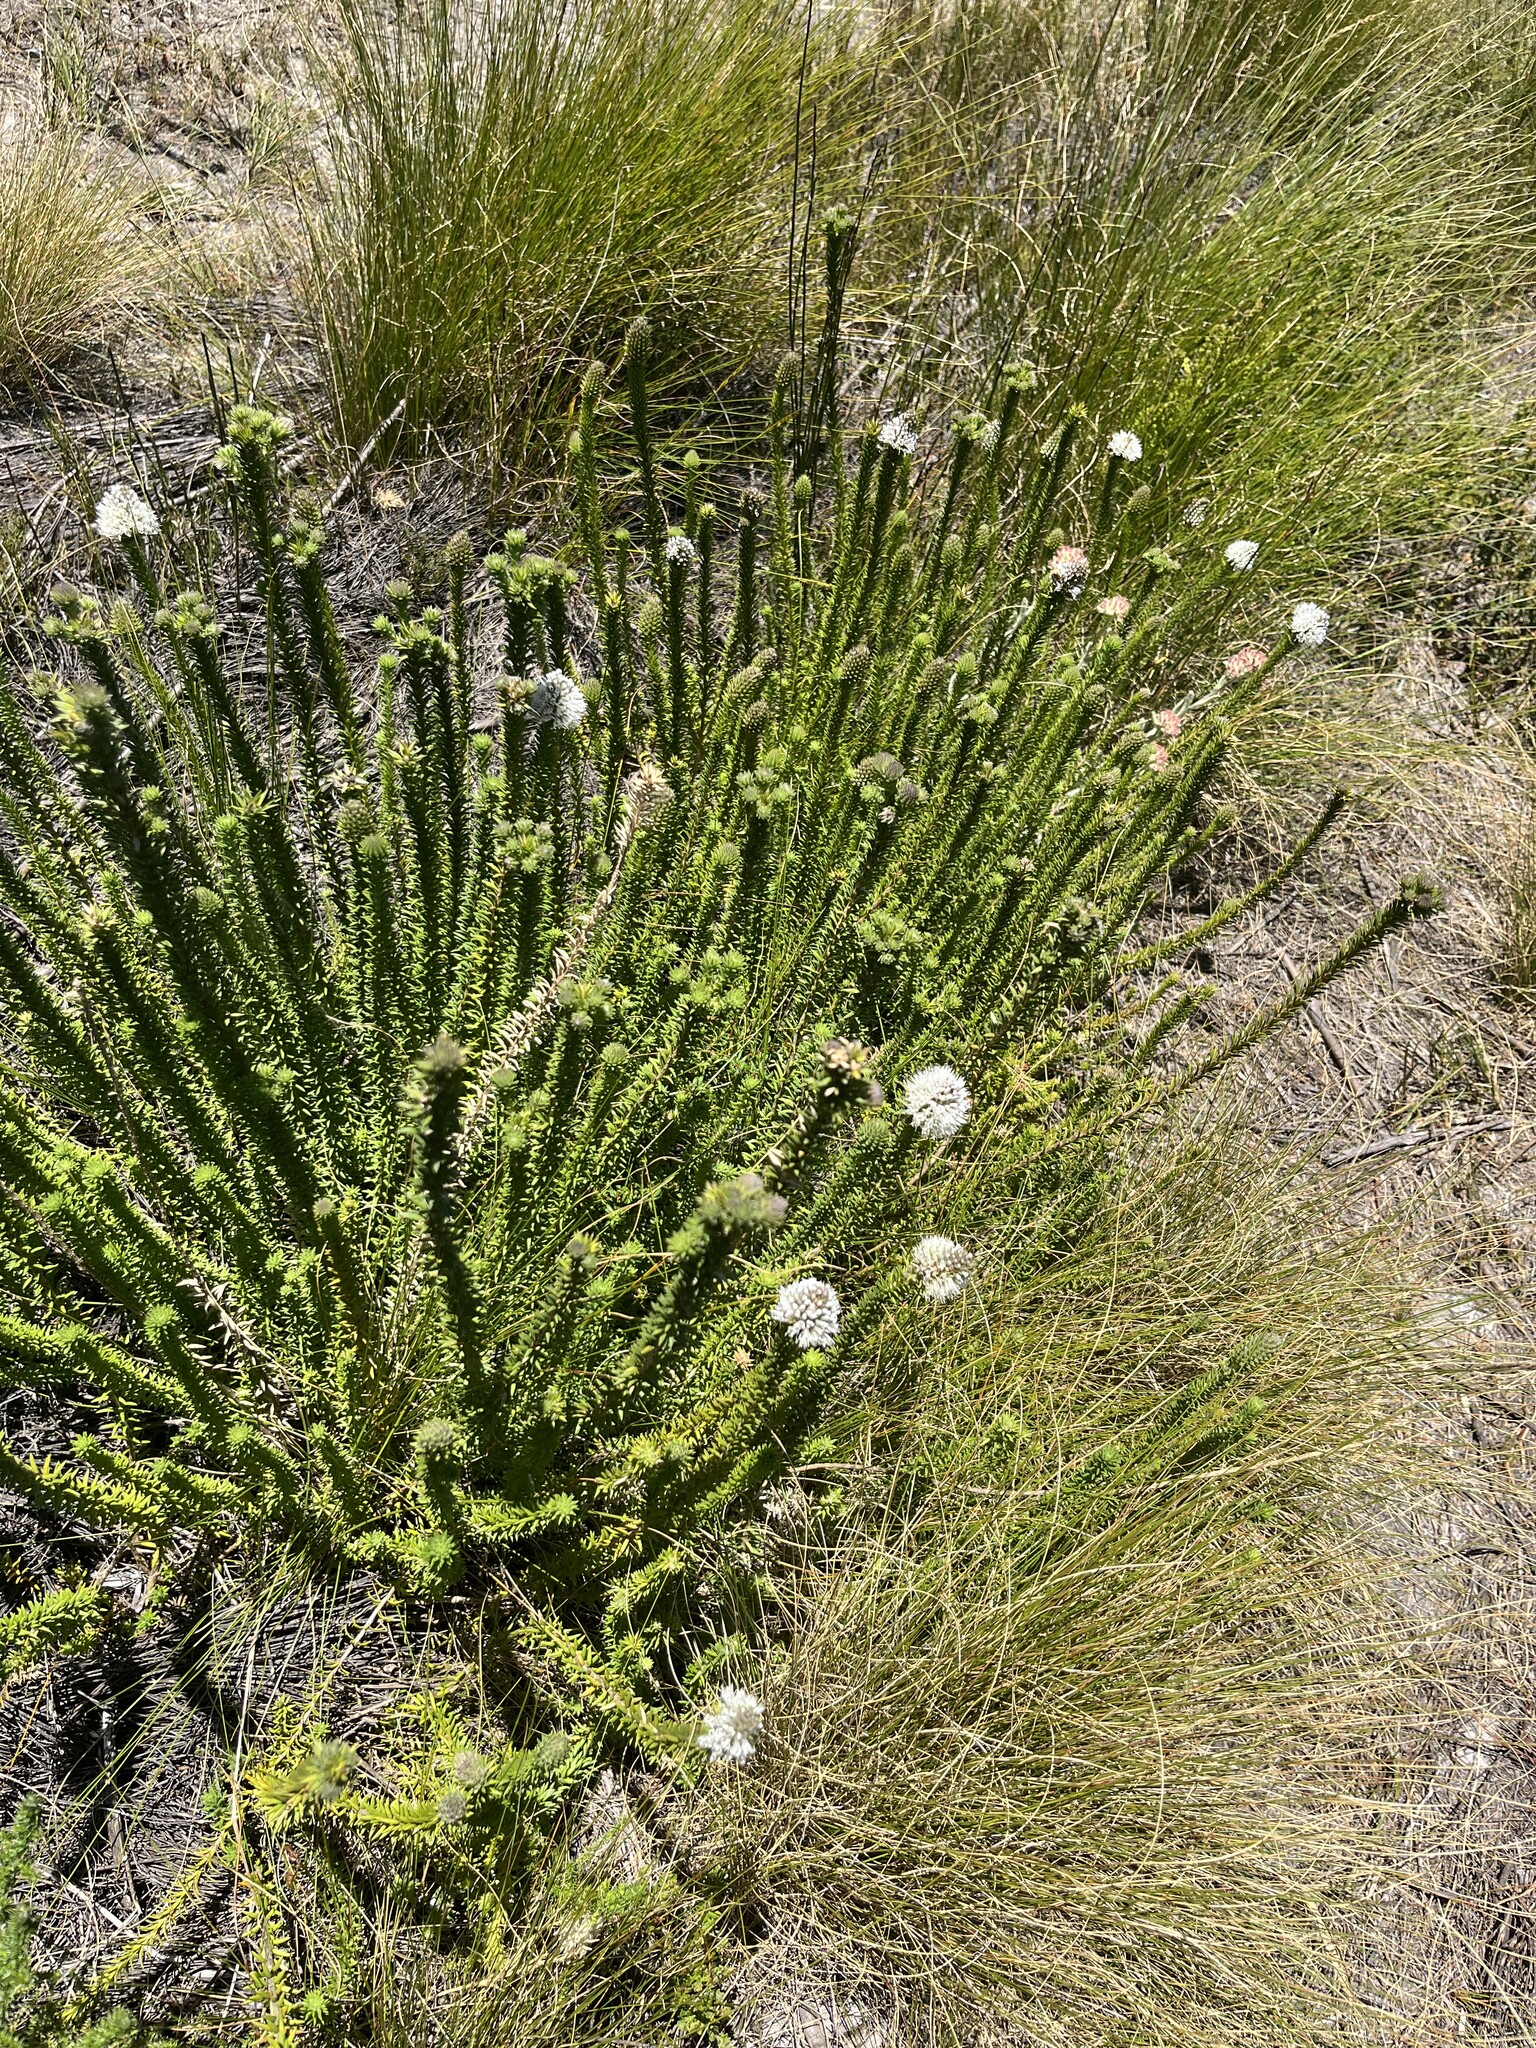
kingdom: Plantae
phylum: Tracheophyta
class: Magnoliopsida
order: Lamiales
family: Stilbaceae
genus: Stilbe
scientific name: Stilbe albiflora
